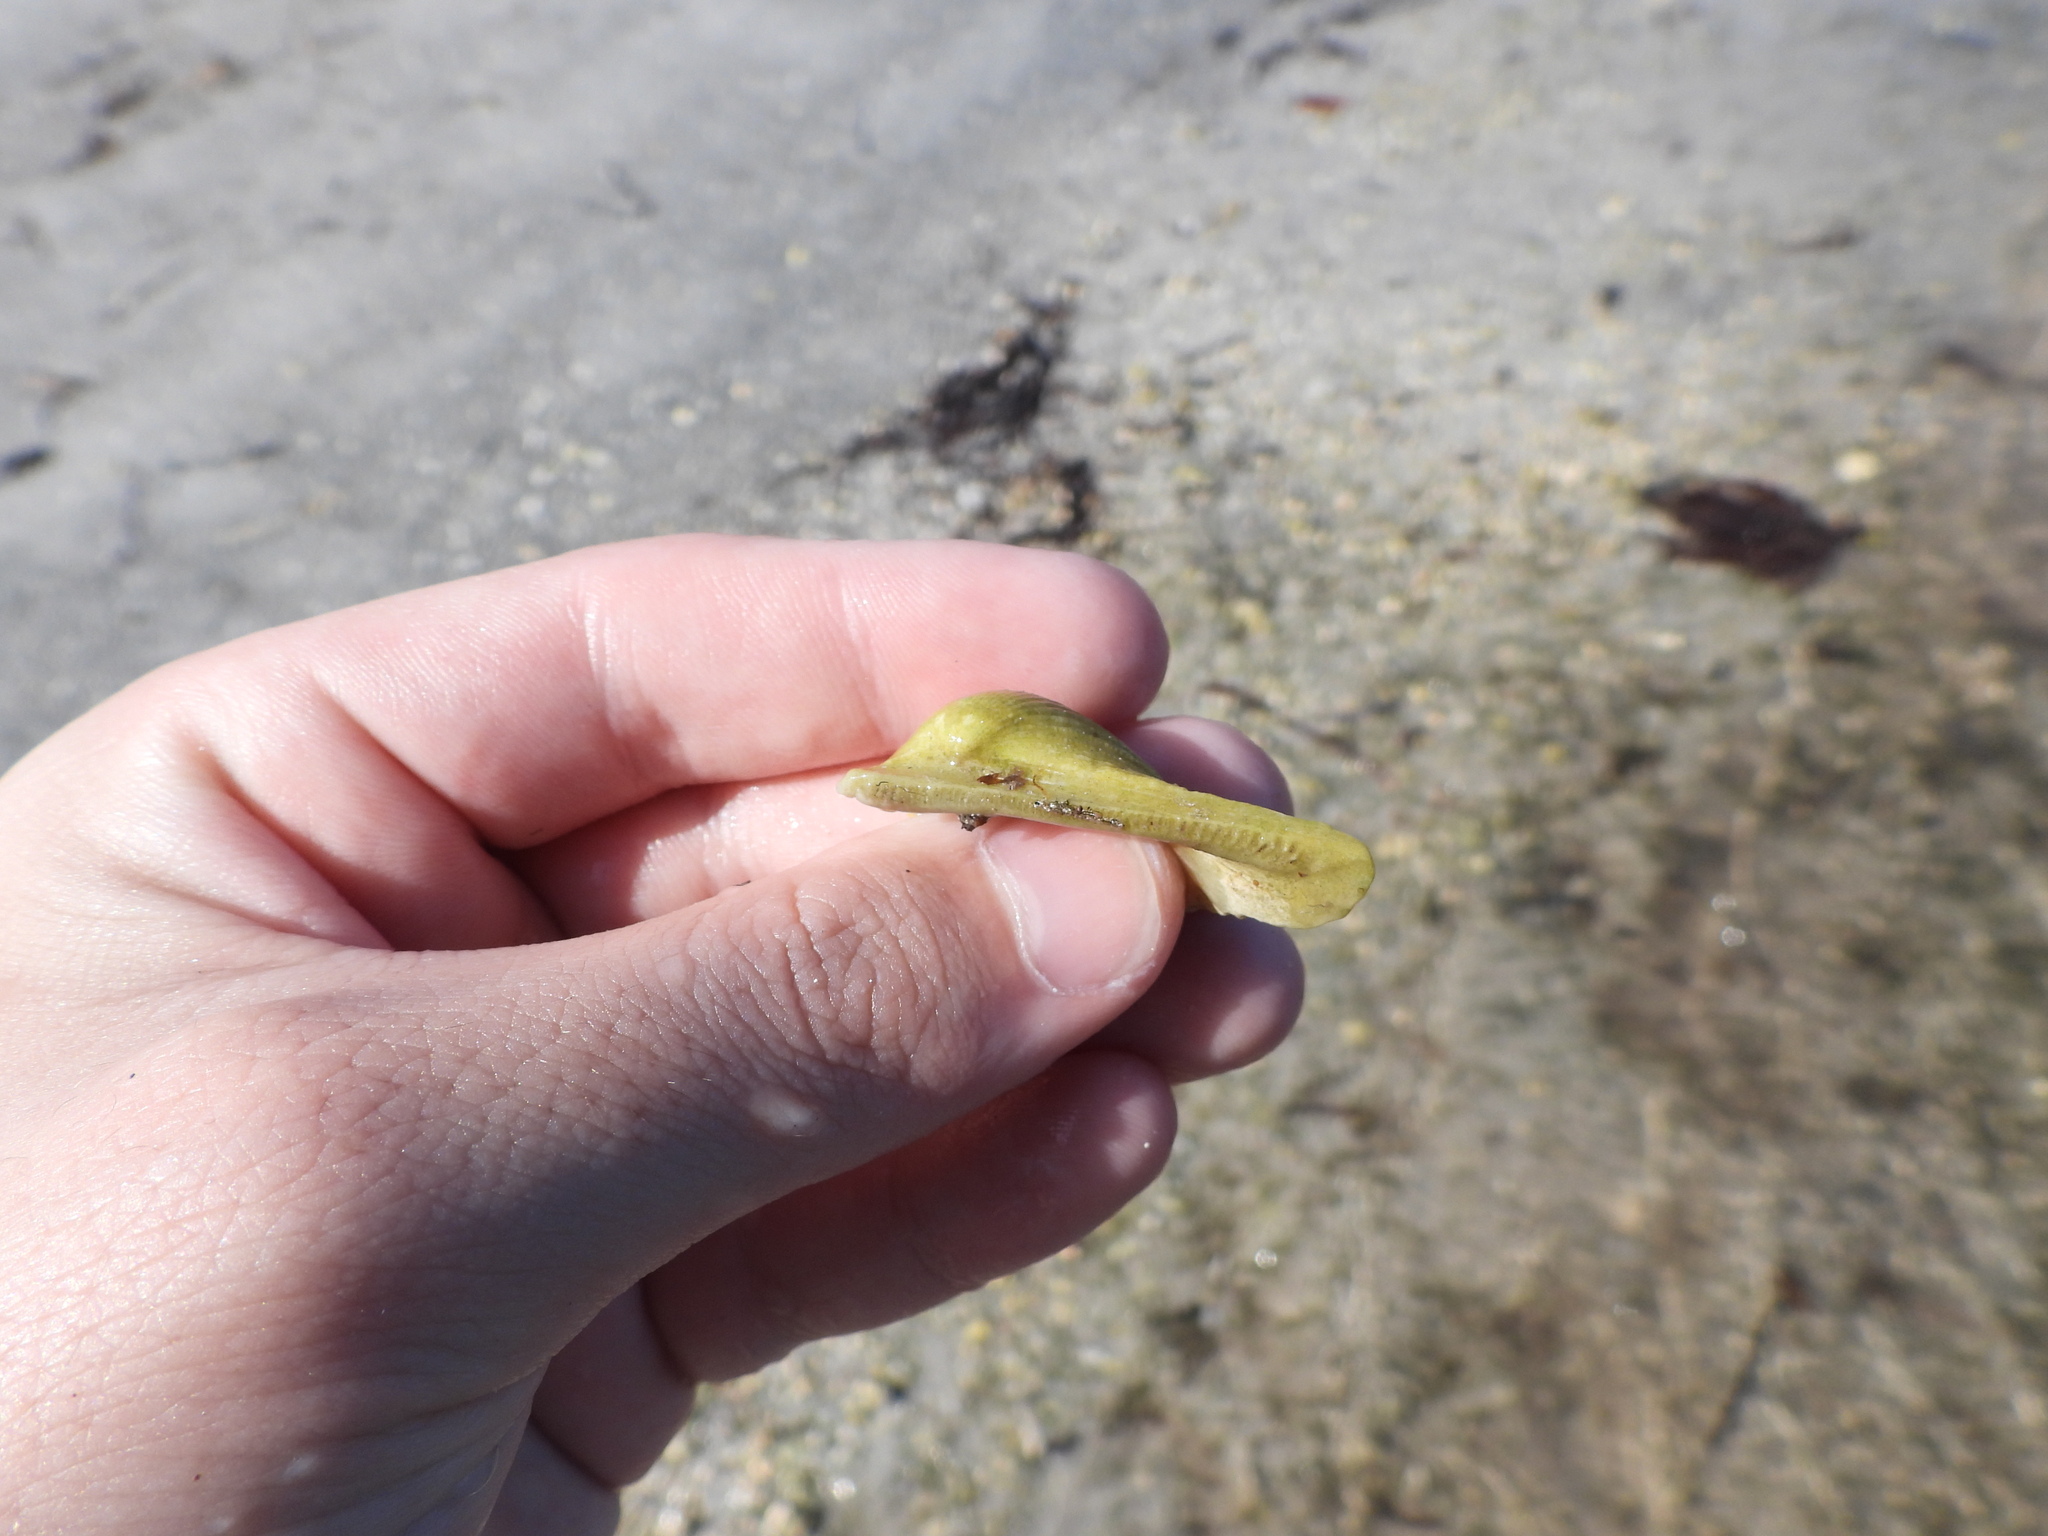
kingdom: Animalia
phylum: Mollusca
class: Bivalvia
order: Arcida
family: Arcidae
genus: Anadara
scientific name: Anadara secticostata
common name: Cut-ribbed ark
